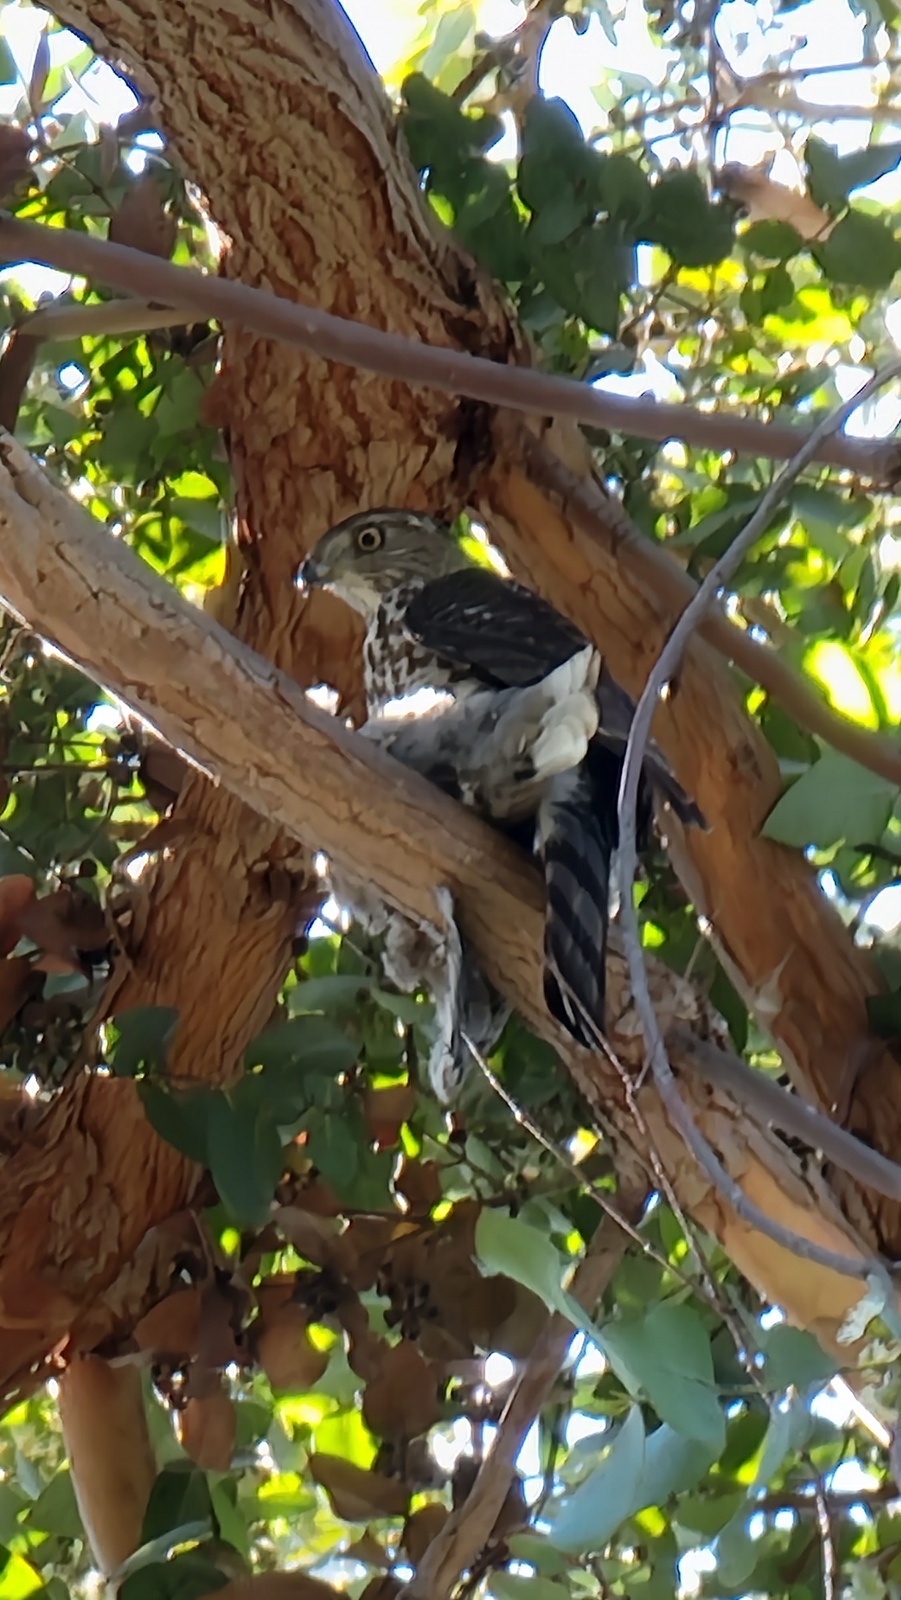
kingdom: Animalia
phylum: Chordata
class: Aves
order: Accipitriformes
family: Accipitridae
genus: Accipiter
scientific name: Accipiter cooperii
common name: Cooper's hawk
